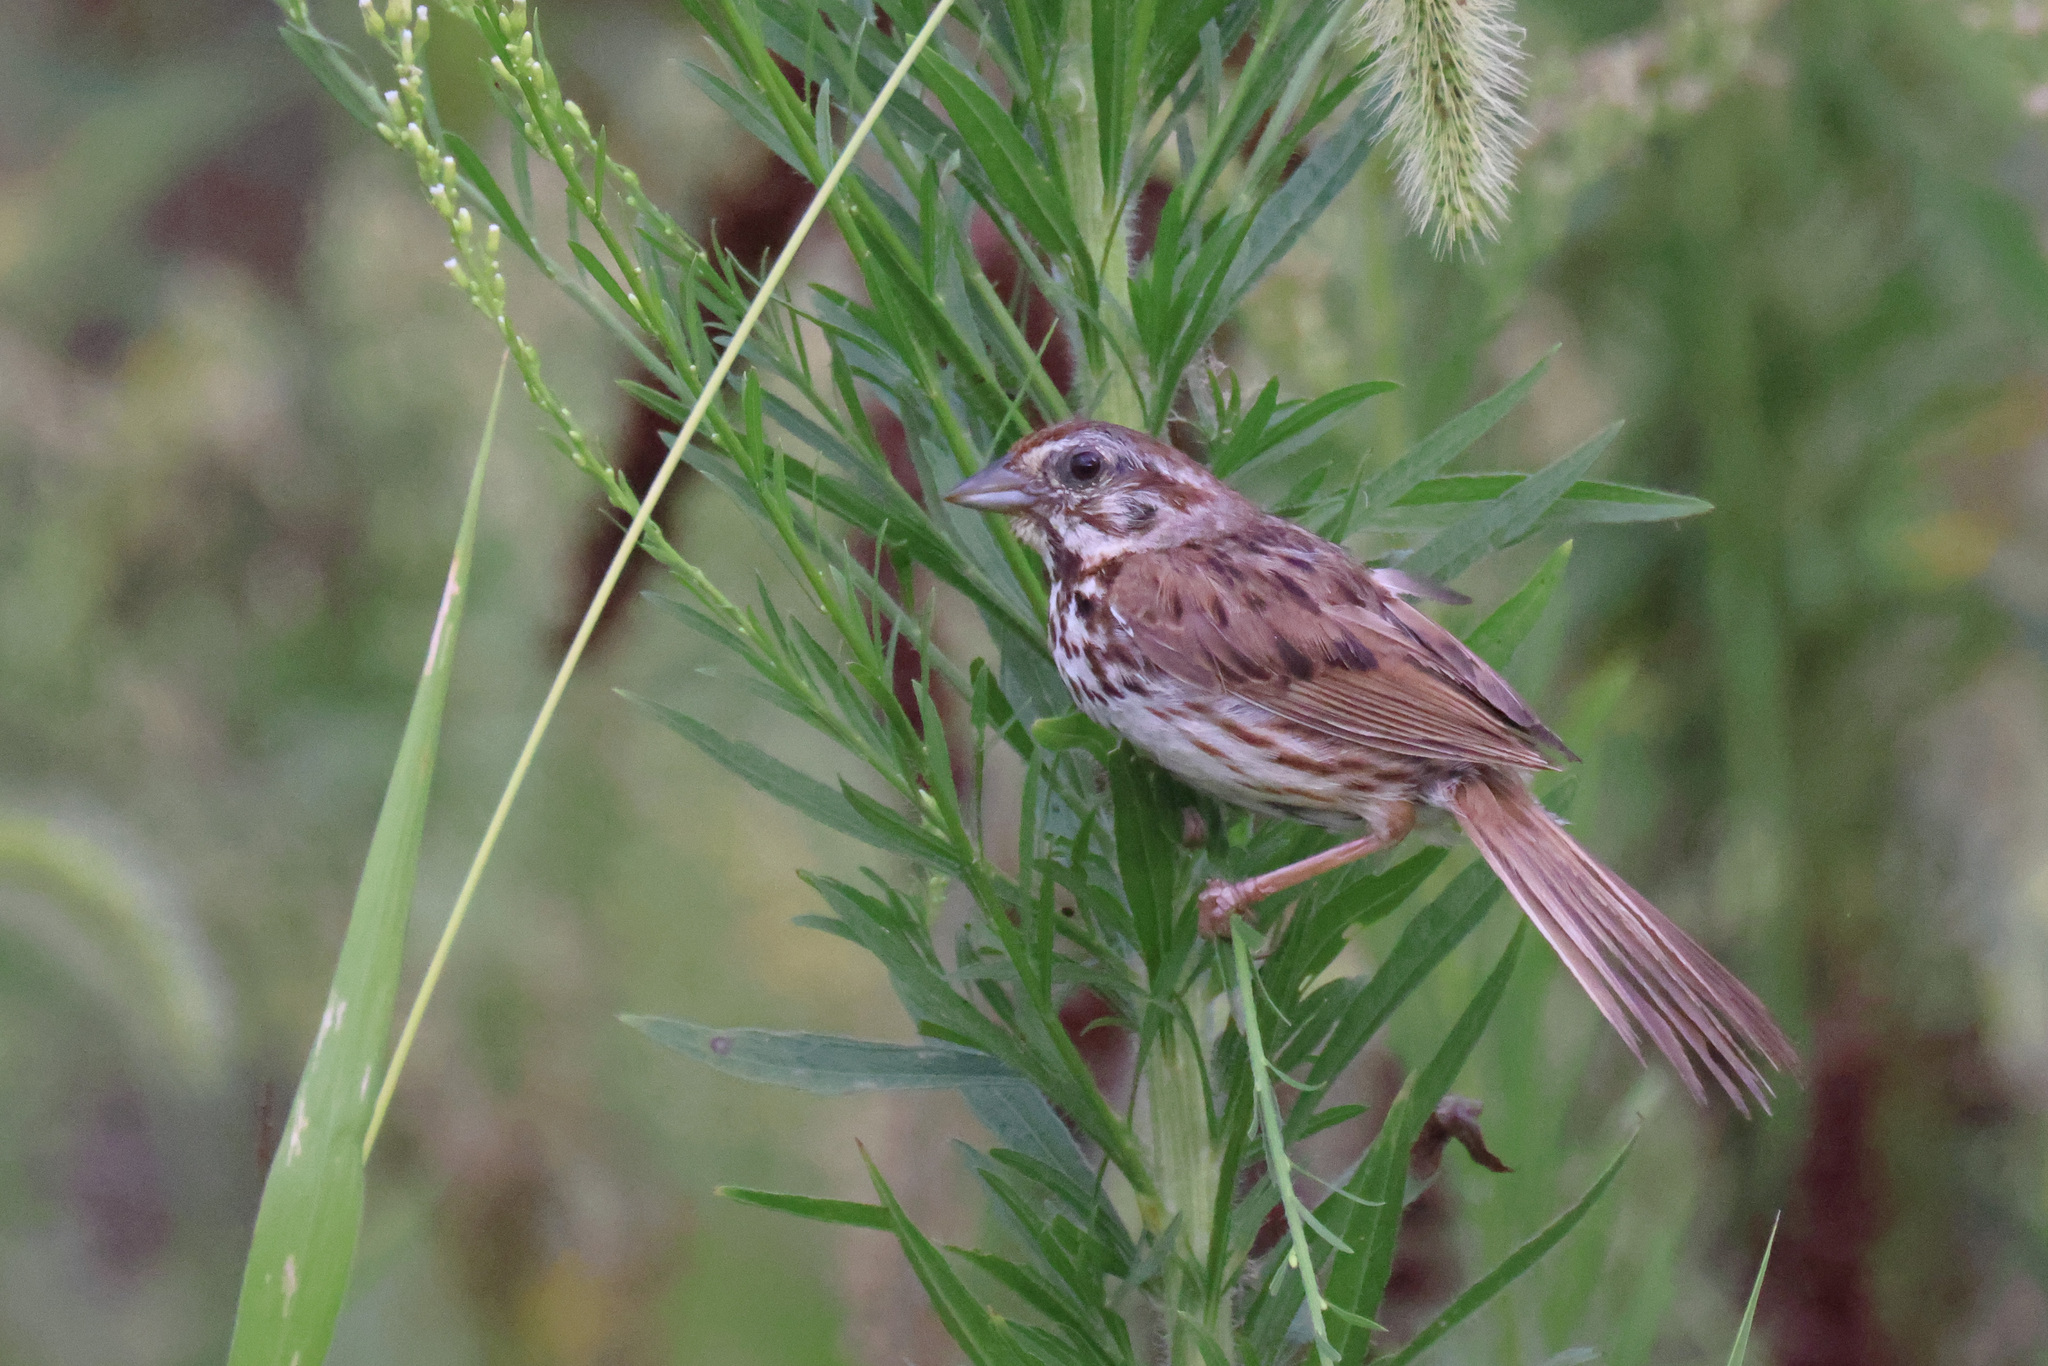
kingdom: Animalia
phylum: Chordata
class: Aves
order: Passeriformes
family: Passerellidae
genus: Melospiza
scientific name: Melospiza melodia
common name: Song sparrow
